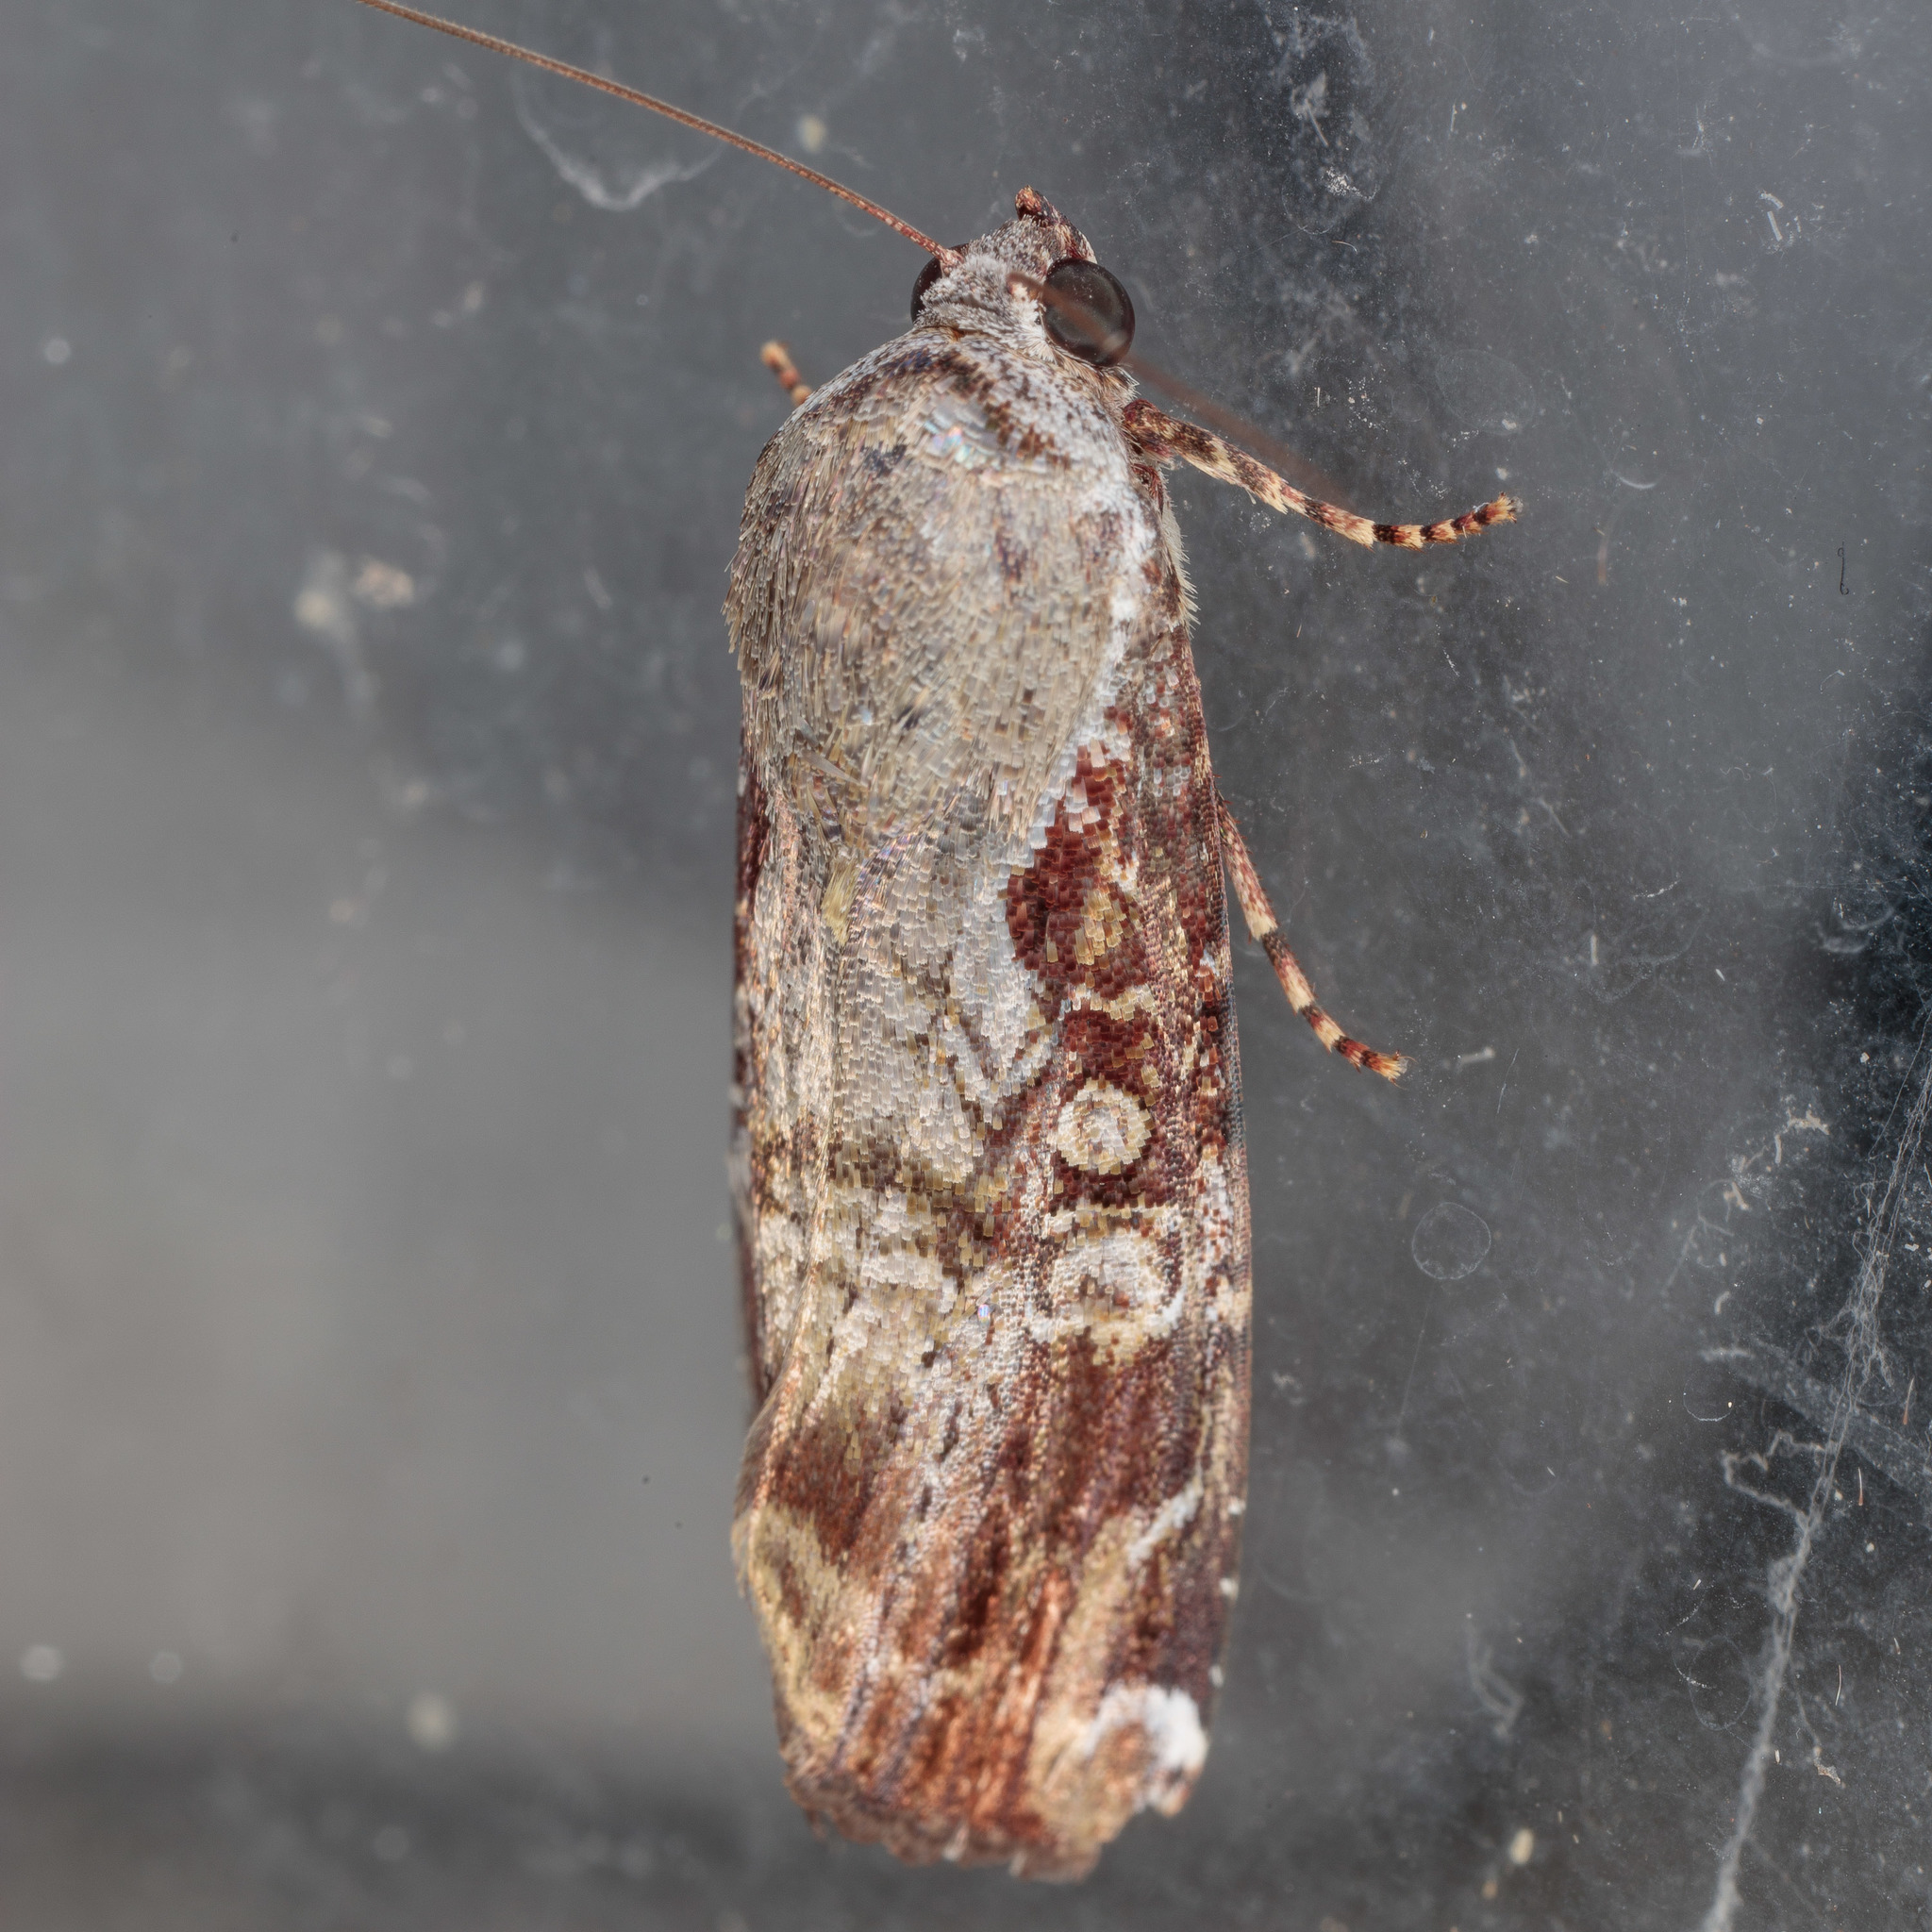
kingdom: Animalia
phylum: Arthropoda
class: Insecta
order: Lepidoptera
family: Noctuidae
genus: Magusa
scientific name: Magusa divaricata
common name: Orb narrow-winged moth
